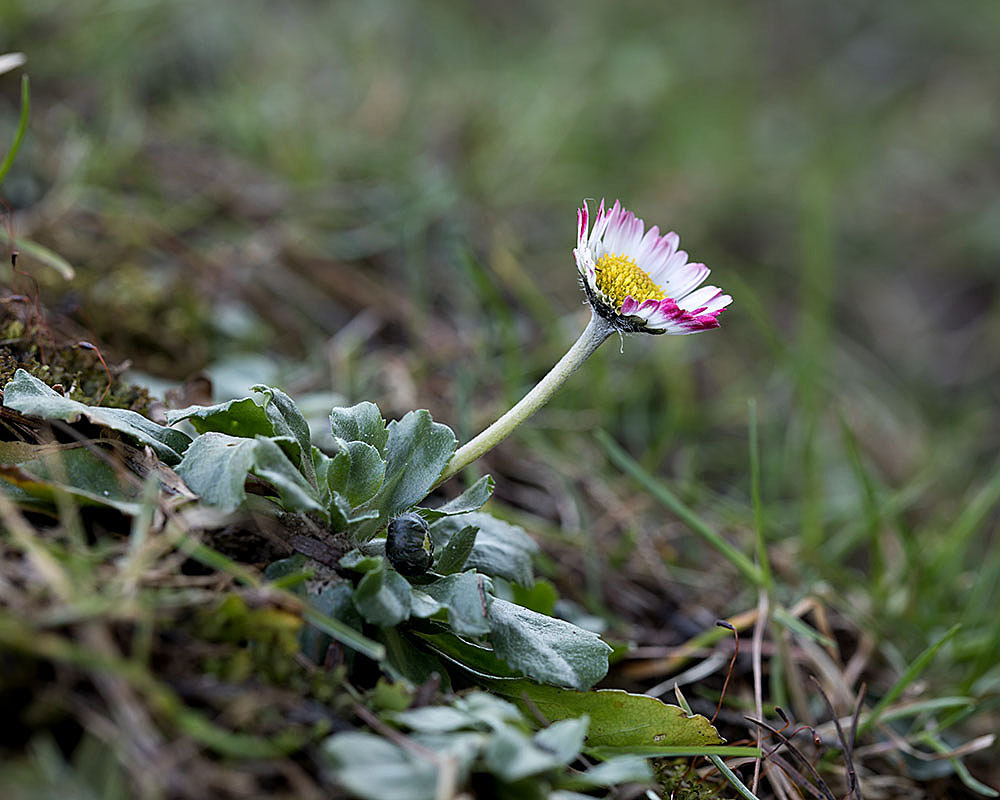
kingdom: Plantae
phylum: Tracheophyta
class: Magnoliopsida
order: Asterales
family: Asteraceae
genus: Bellis
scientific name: Bellis perennis
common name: Lawndaisy
